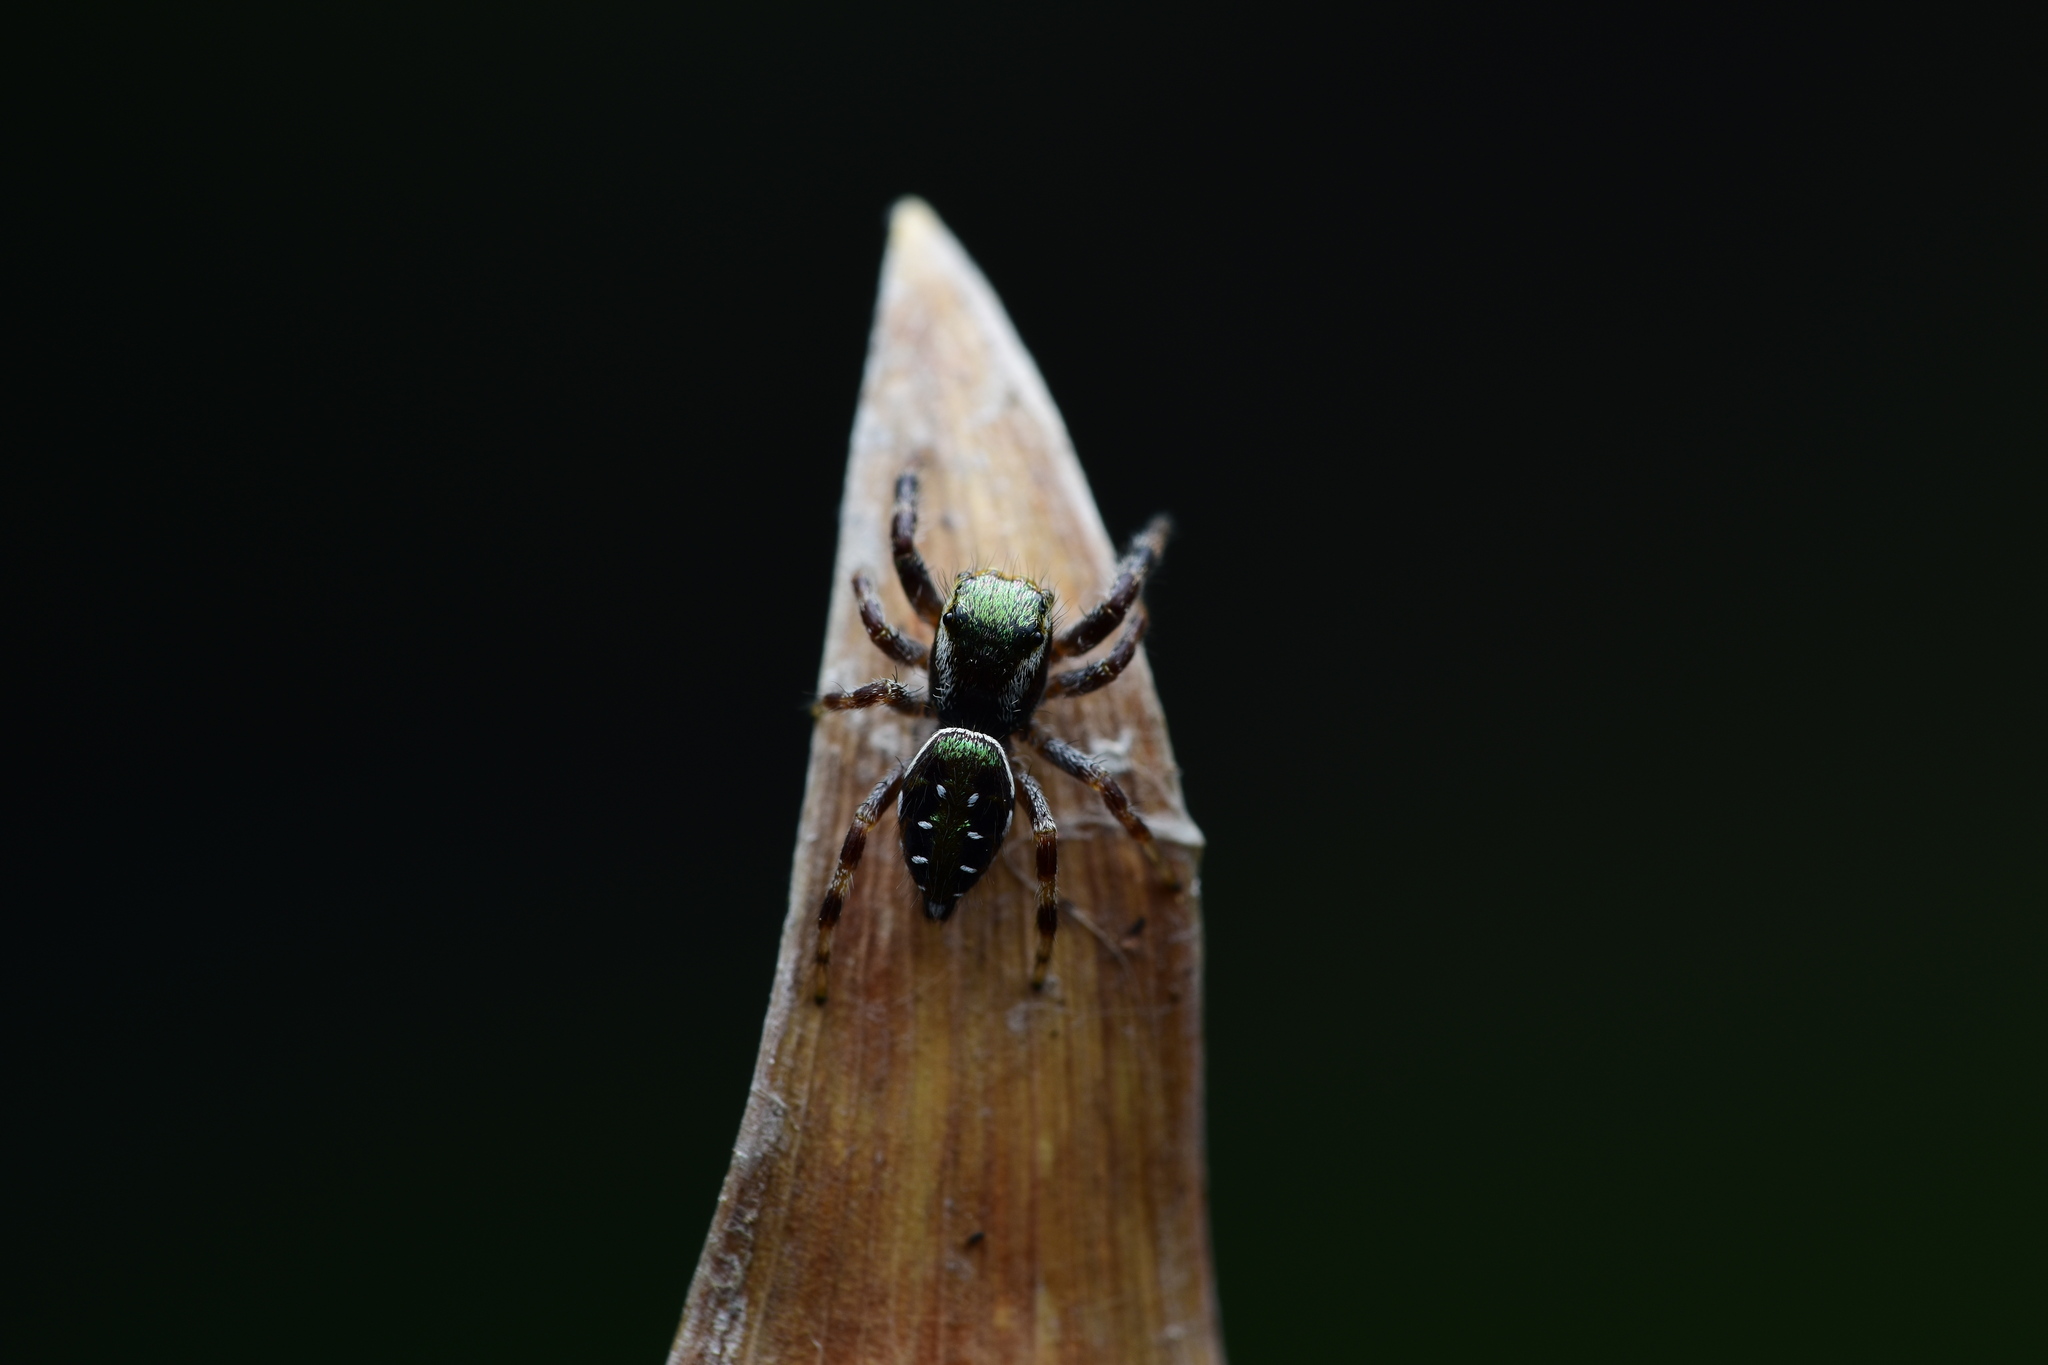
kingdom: Animalia
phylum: Arthropoda
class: Arachnida
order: Araneae
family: Salticidae
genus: Paraphidippus
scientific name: Paraphidippus aurantius
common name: Jumping spiders
